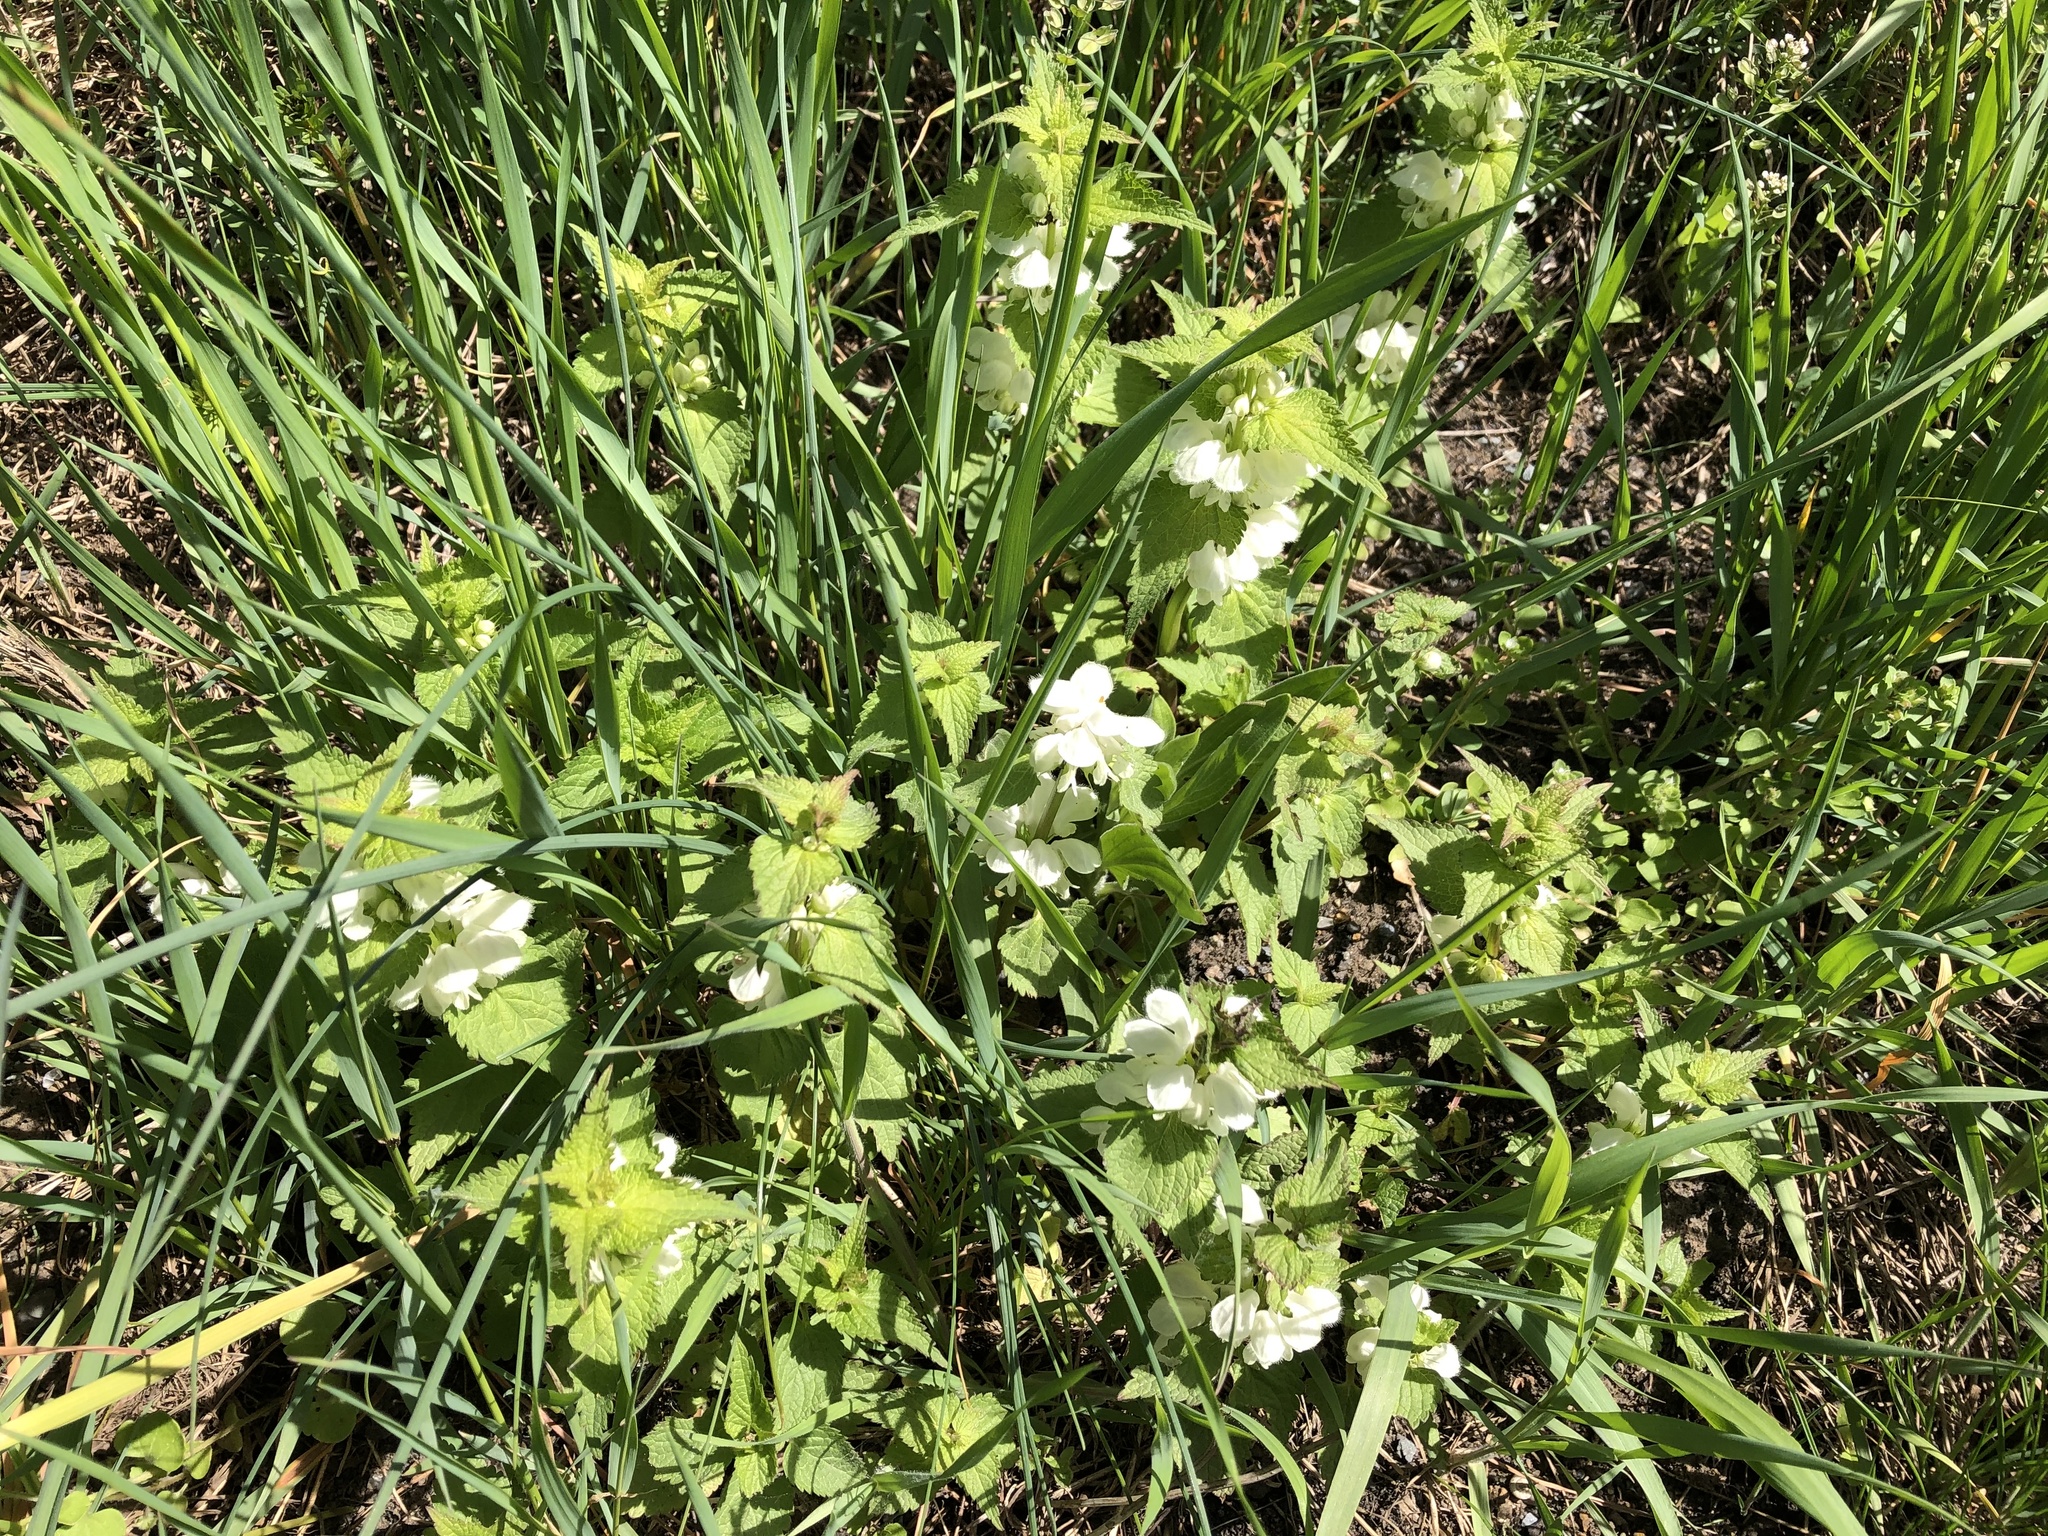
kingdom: Plantae
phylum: Tracheophyta
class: Magnoliopsida
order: Lamiales
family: Lamiaceae
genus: Lamium
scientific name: Lamium album
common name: White dead-nettle
